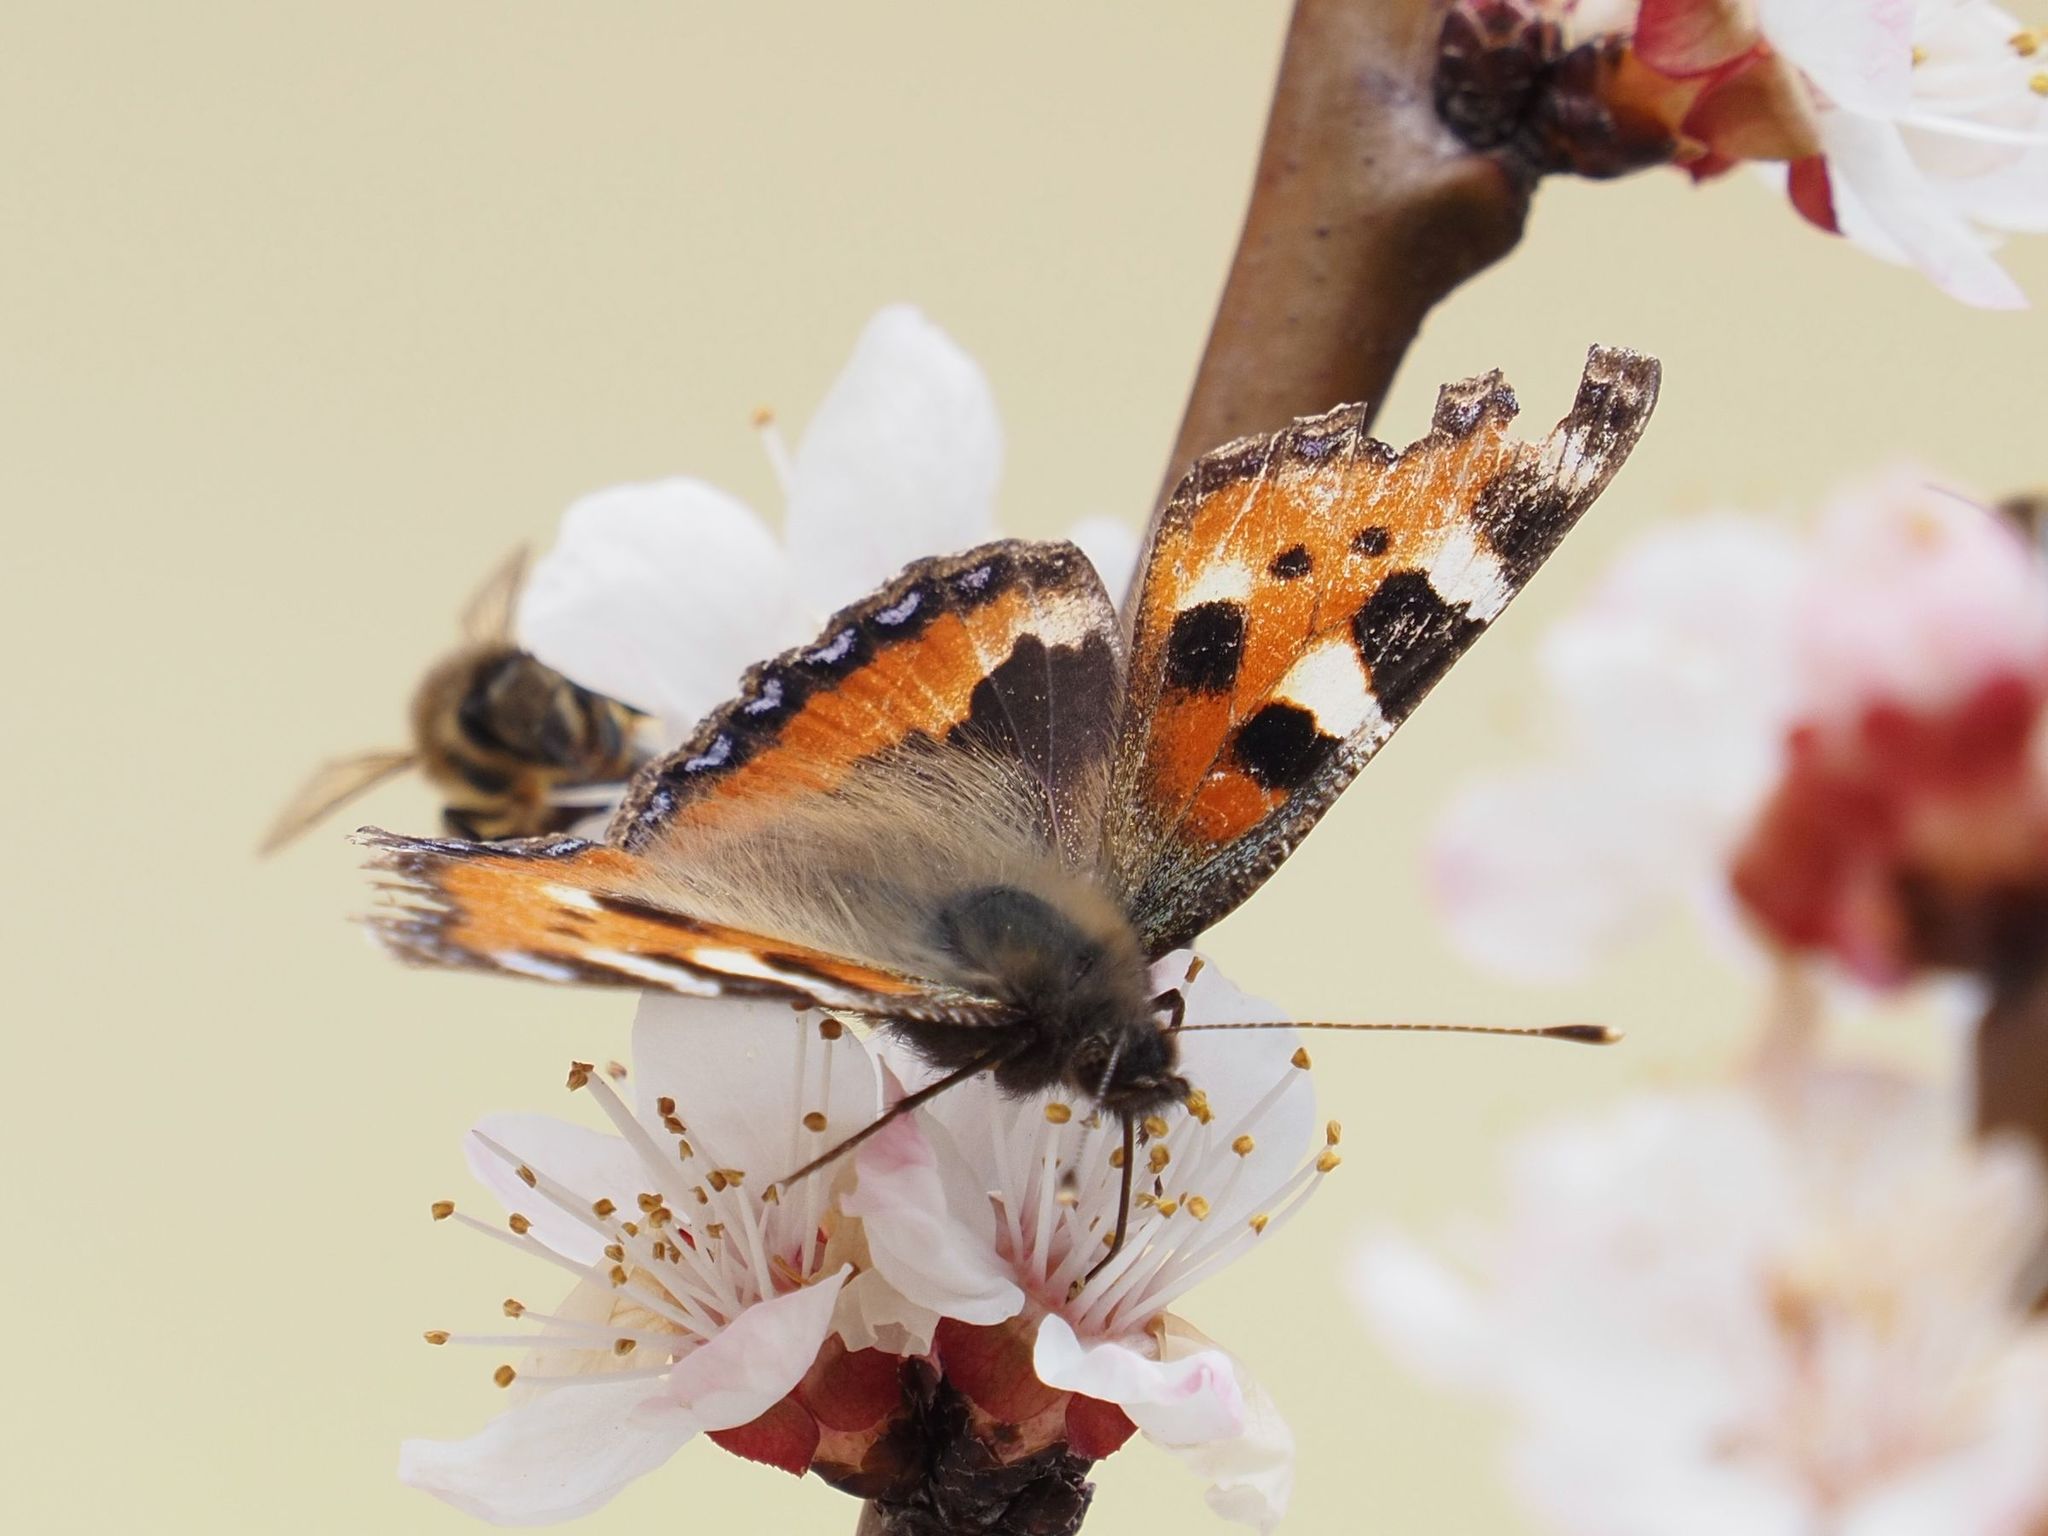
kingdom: Animalia
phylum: Arthropoda
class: Insecta
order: Lepidoptera
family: Nymphalidae
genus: Aglais
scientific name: Aglais urticae
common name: Small tortoiseshell
